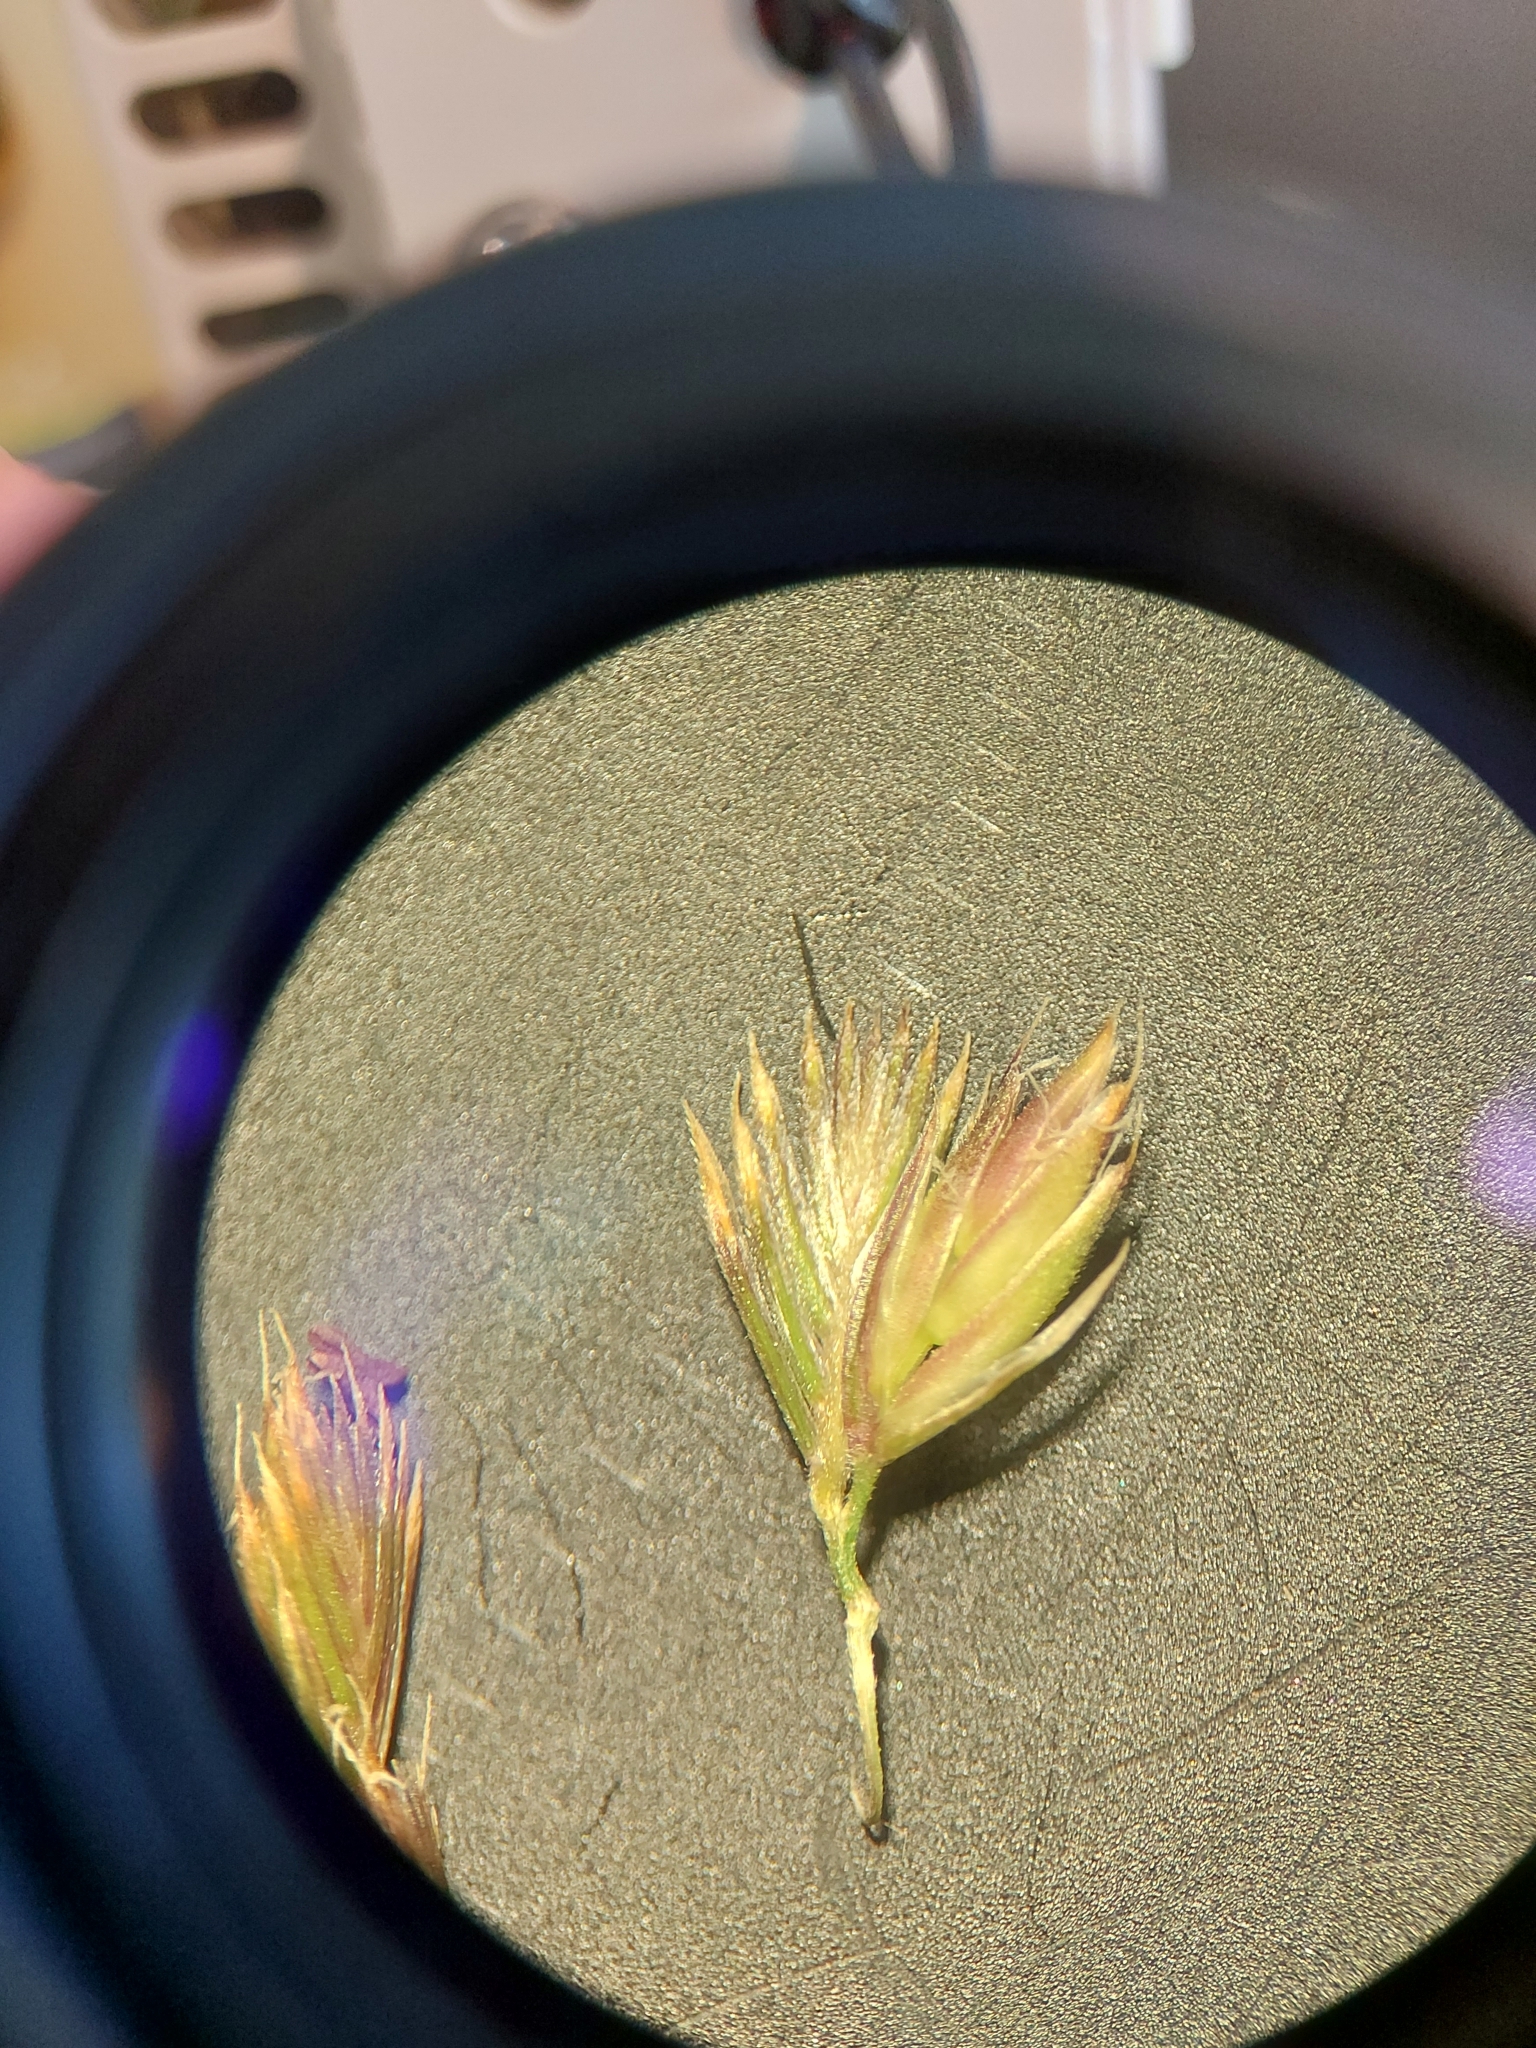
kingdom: Plantae
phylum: Tracheophyta
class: Liliopsida
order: Poales
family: Poaceae
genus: Cynosurus
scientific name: Cynosurus cristatus
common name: Crested dog's-tail
